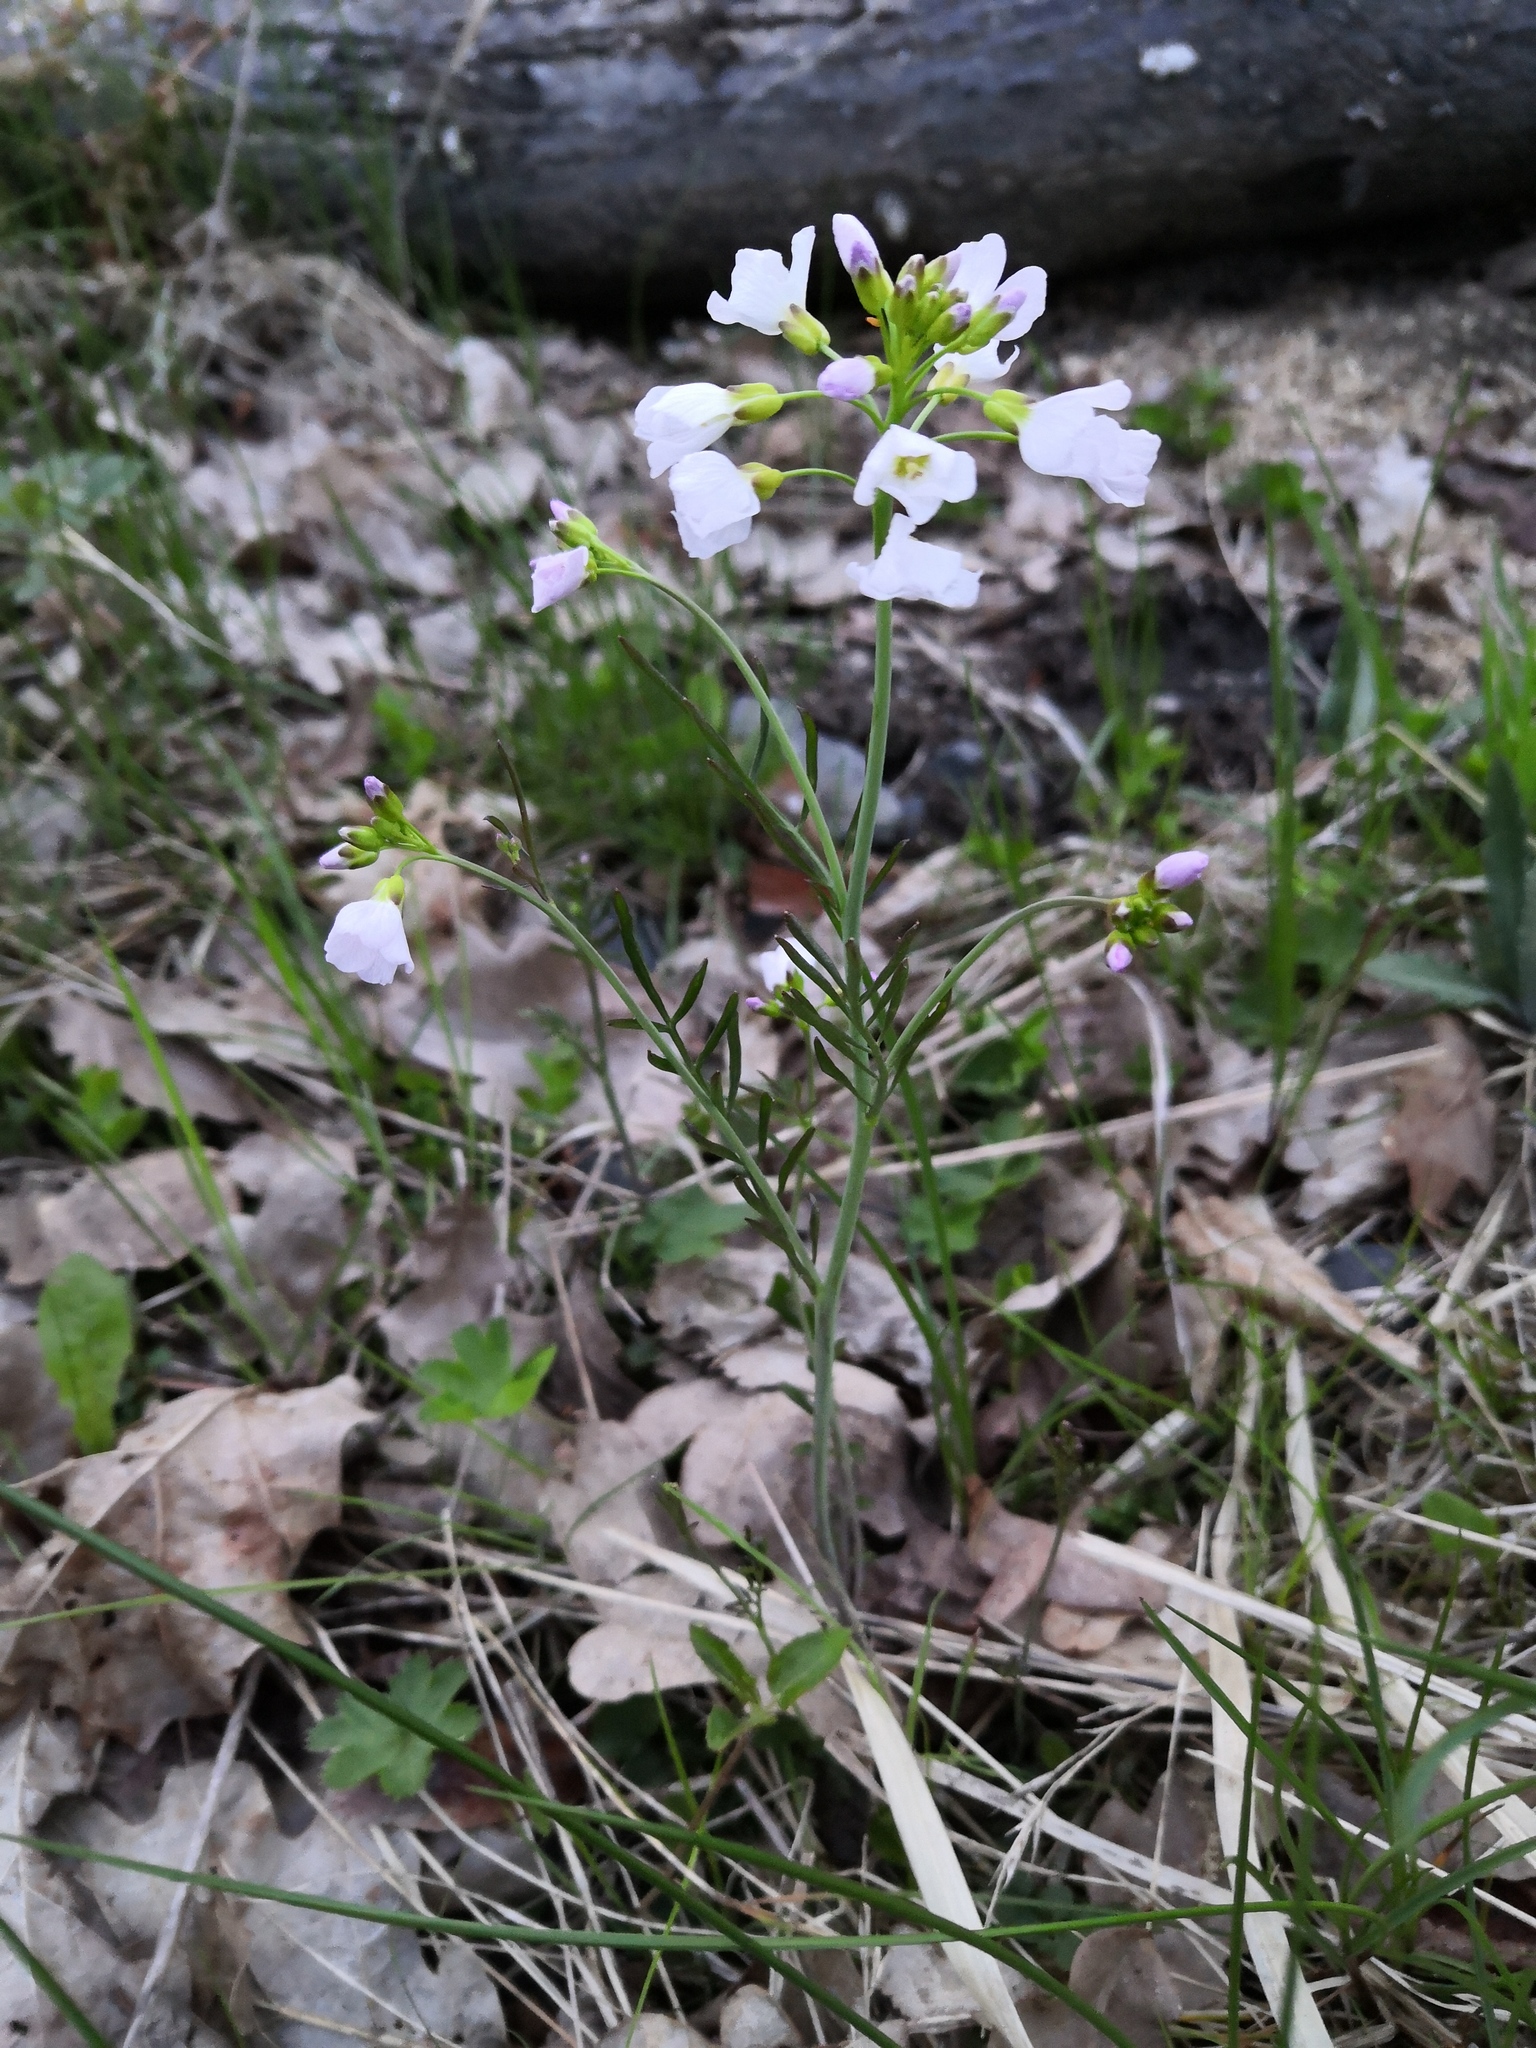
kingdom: Plantae
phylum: Tracheophyta
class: Magnoliopsida
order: Brassicales
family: Brassicaceae
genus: Cardamine
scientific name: Cardamine pratensis
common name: Cuckoo flower
